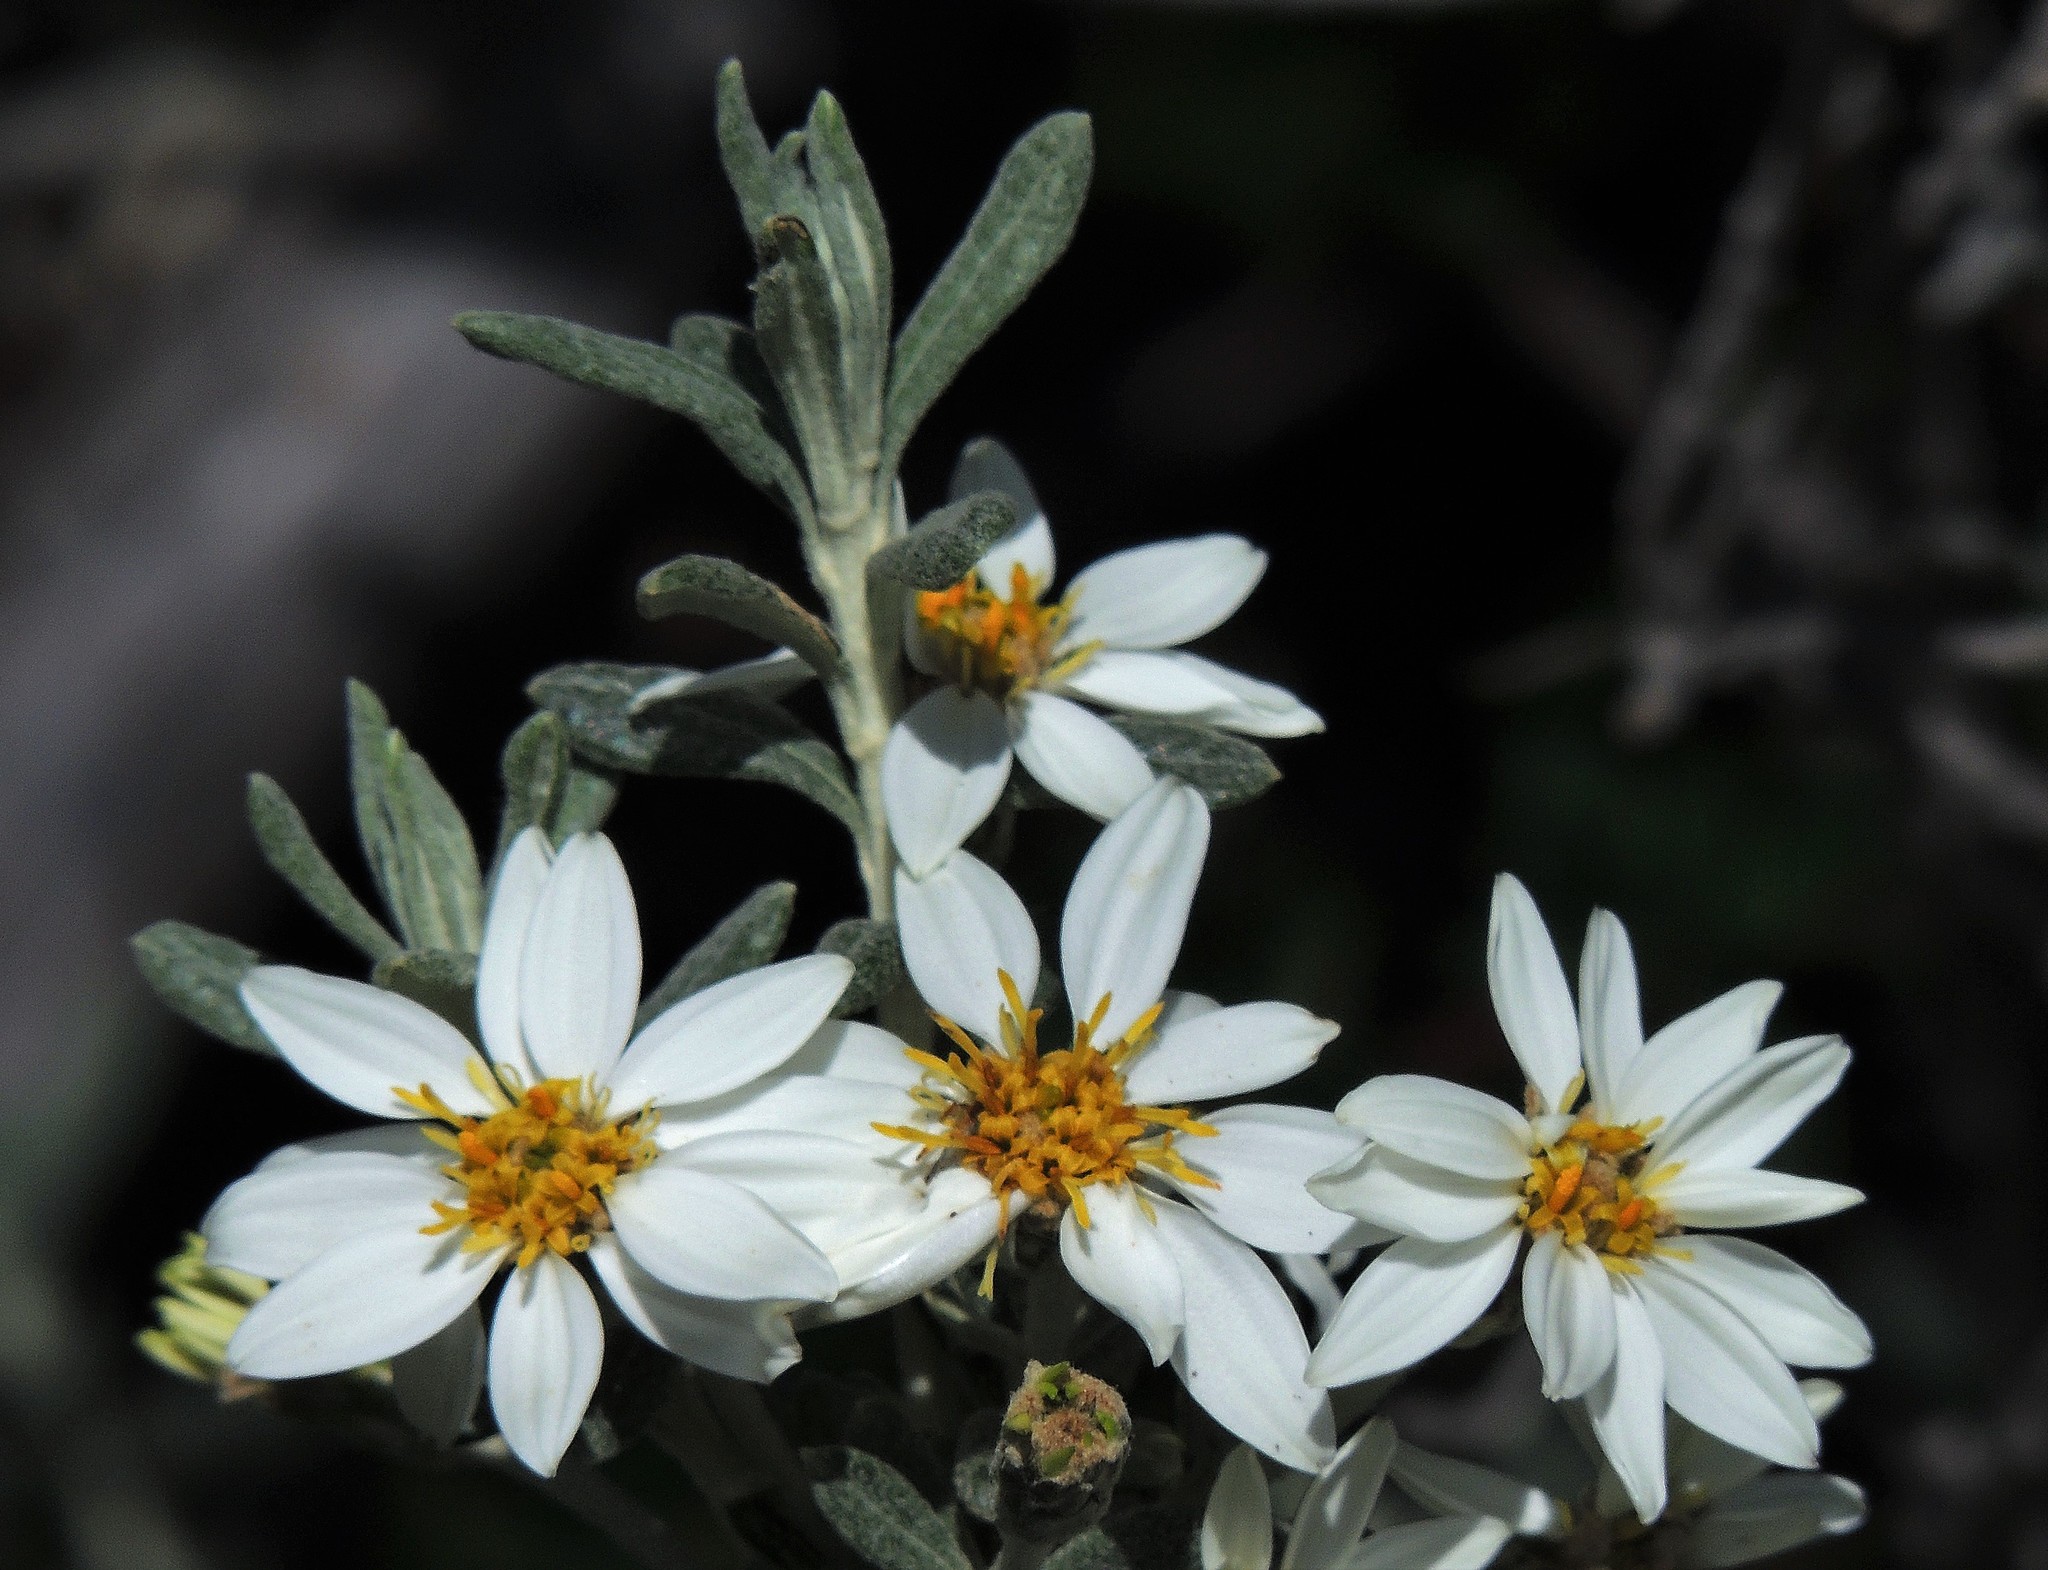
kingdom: Plantae
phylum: Tracheophyta
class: Magnoliopsida
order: Asterales
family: Asteraceae
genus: Chiliotrichum
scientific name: Chiliotrichum diffusum
